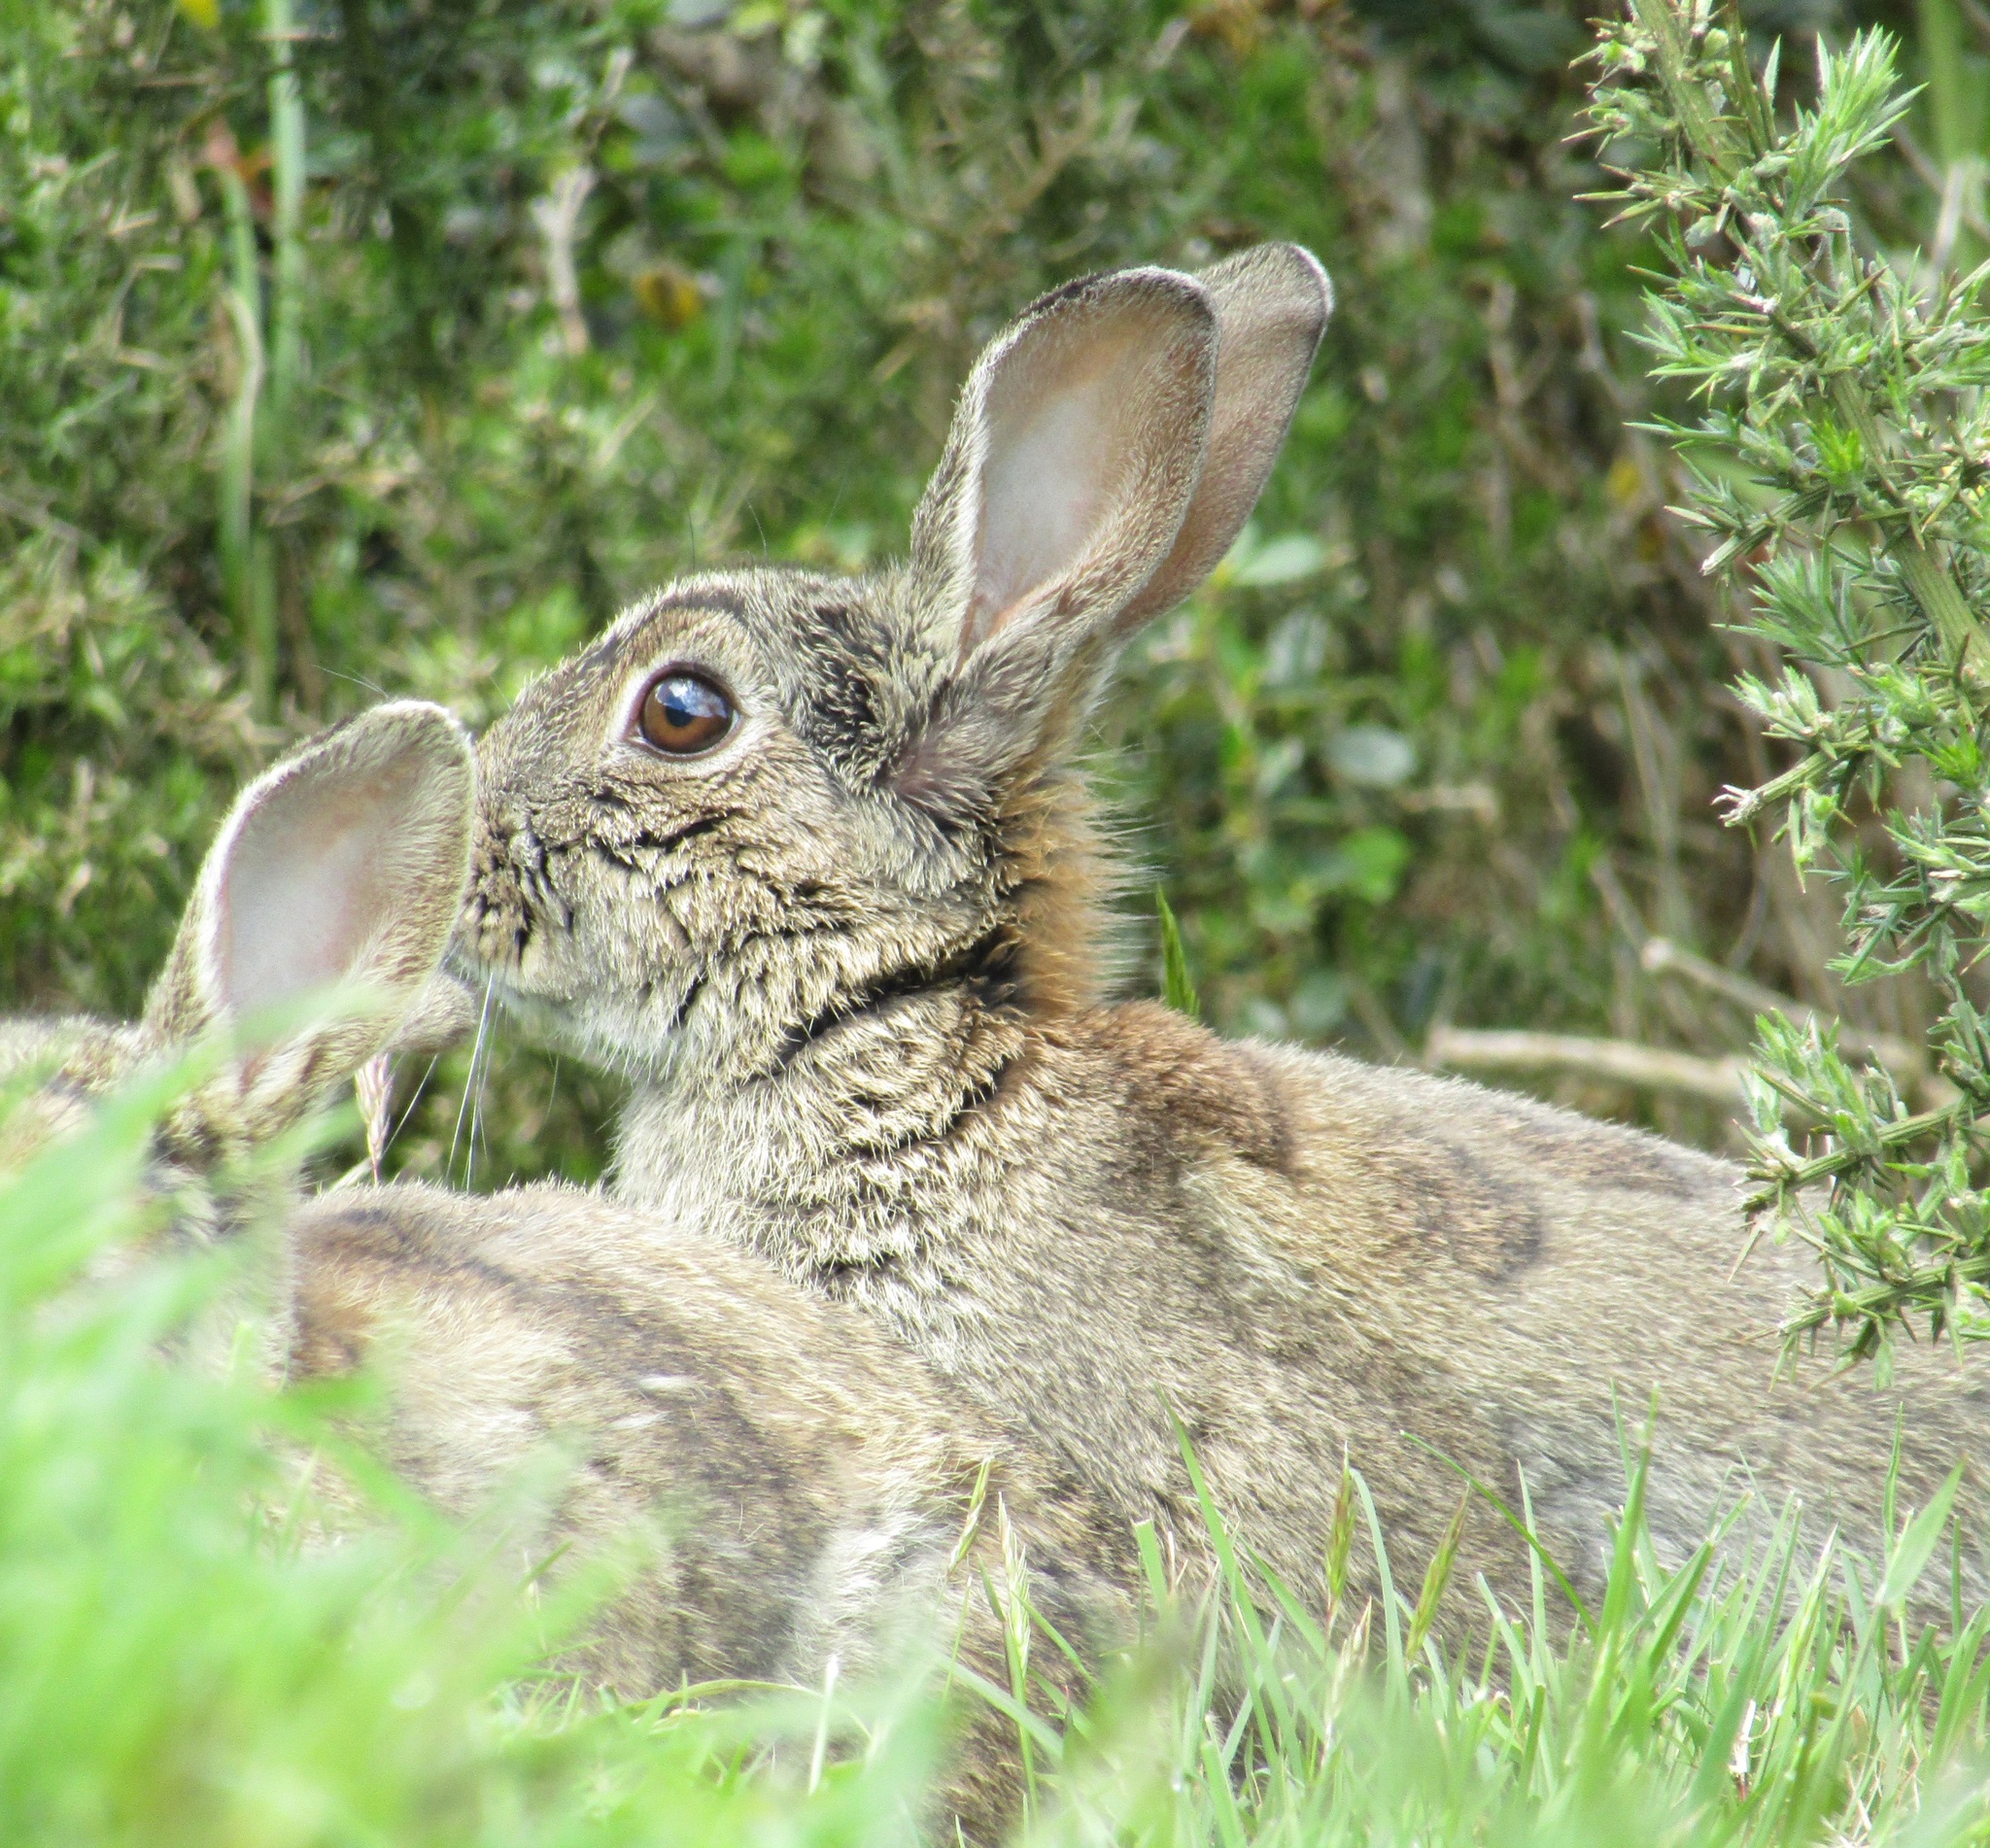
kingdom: Animalia
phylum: Chordata
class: Mammalia
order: Lagomorpha
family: Leporidae
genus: Oryctolagus
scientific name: Oryctolagus cuniculus
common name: European rabbit
